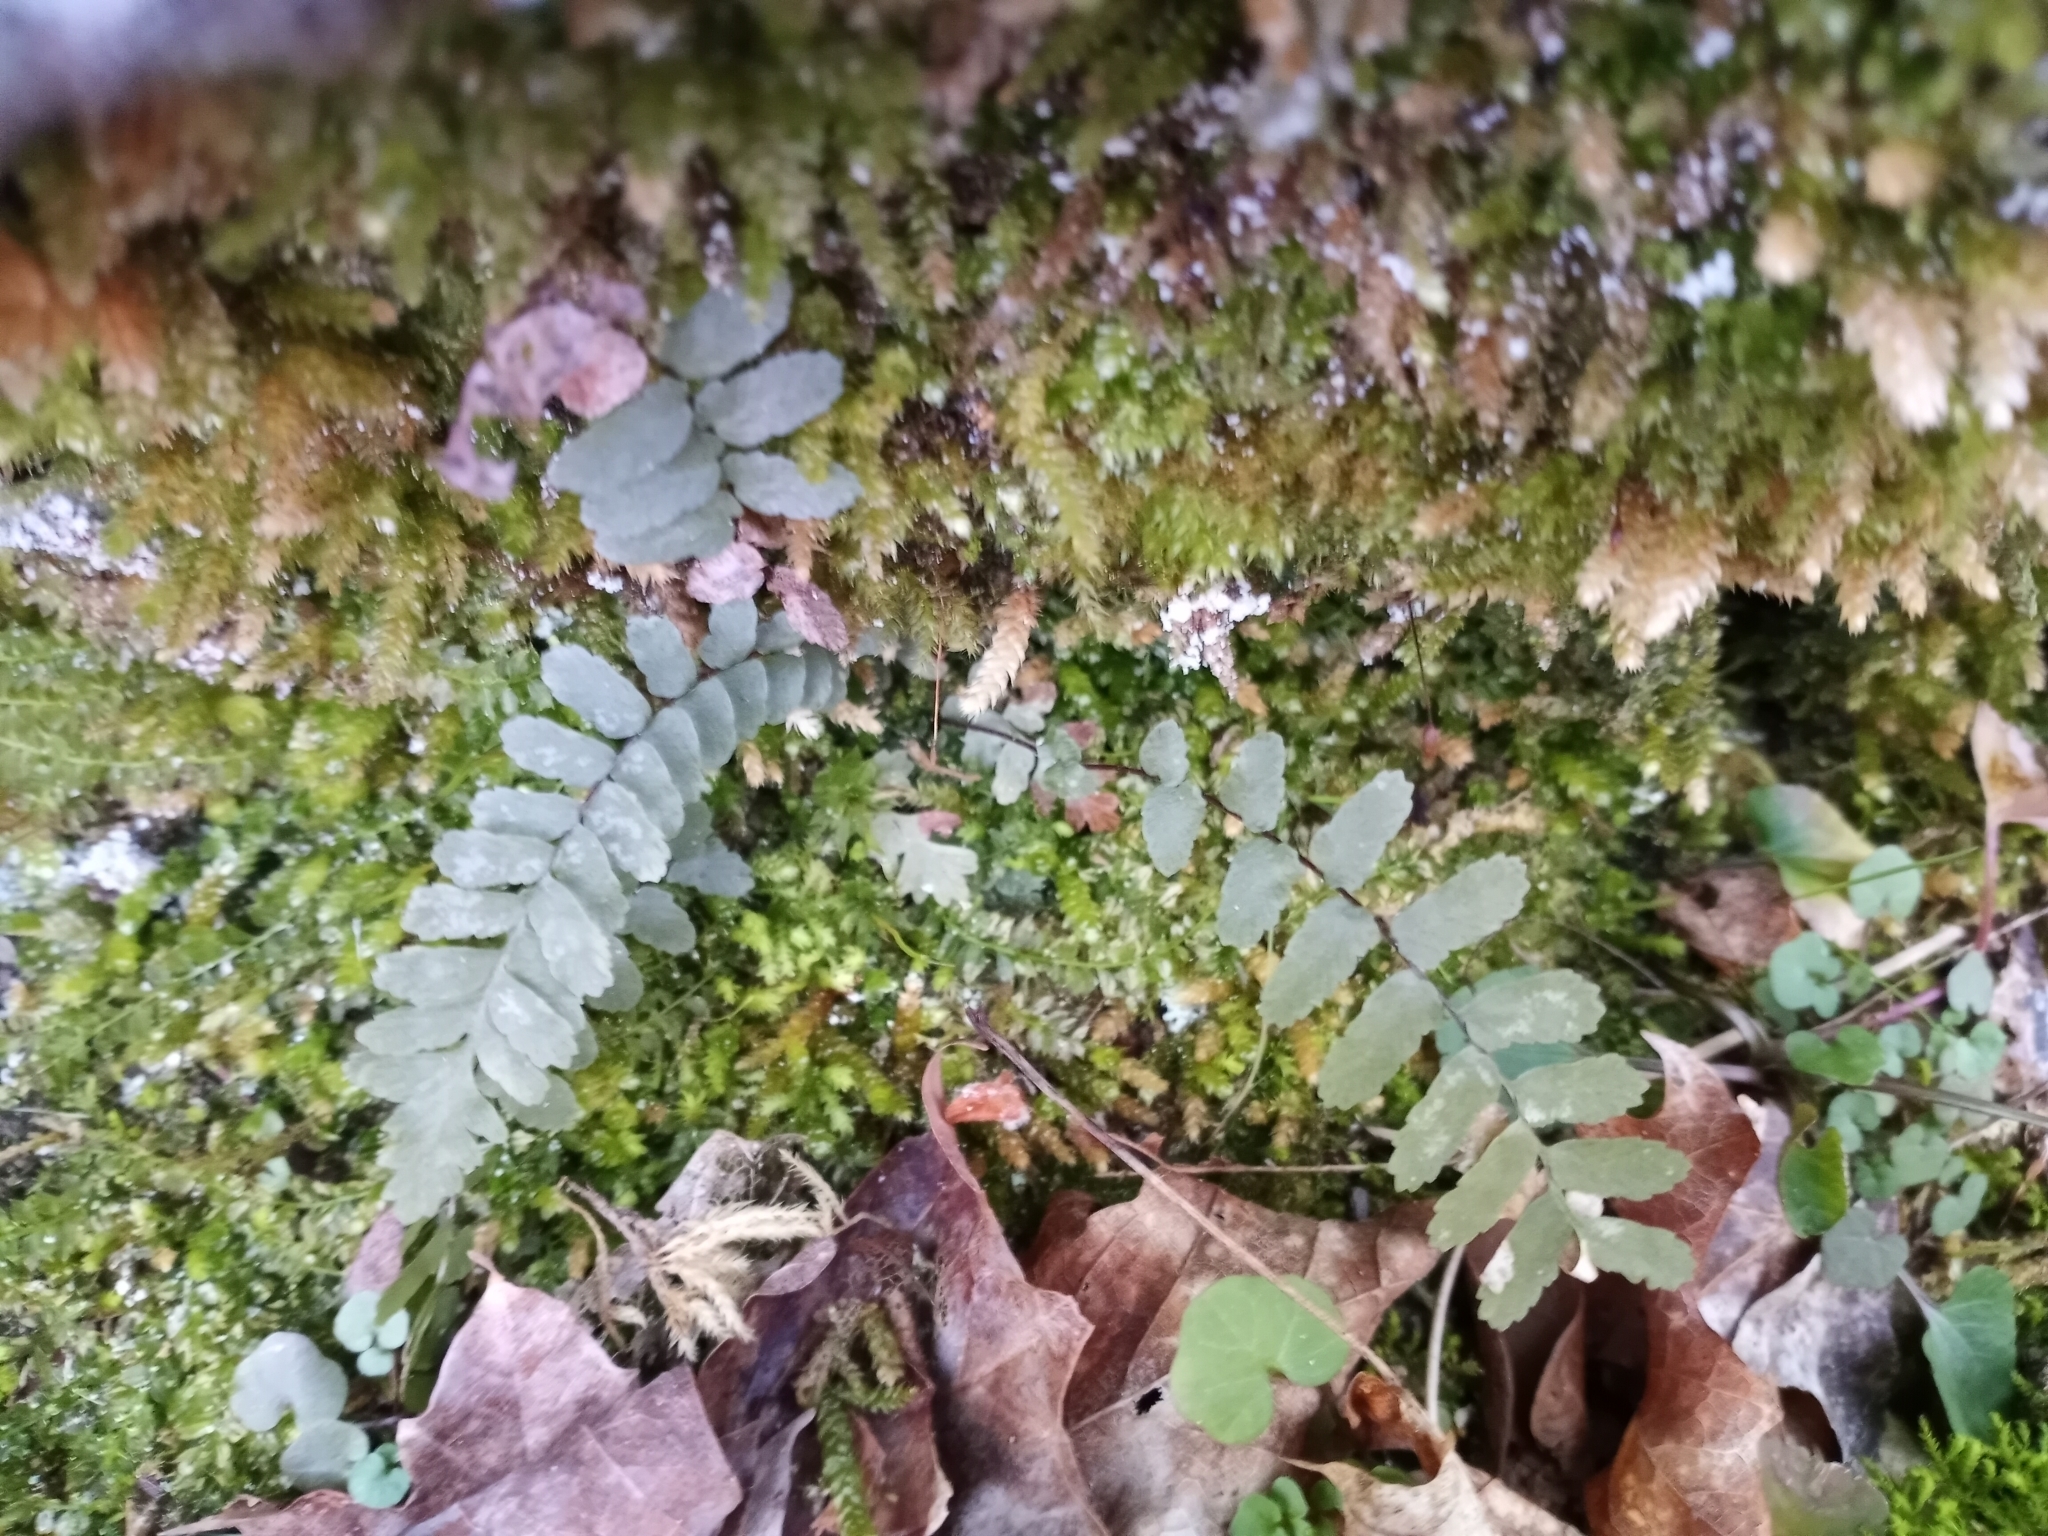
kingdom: Plantae
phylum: Tracheophyta
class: Polypodiopsida
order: Polypodiales
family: Aspleniaceae
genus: Asplenium
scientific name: Asplenium platyneuron
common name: Ebony spleenwort
